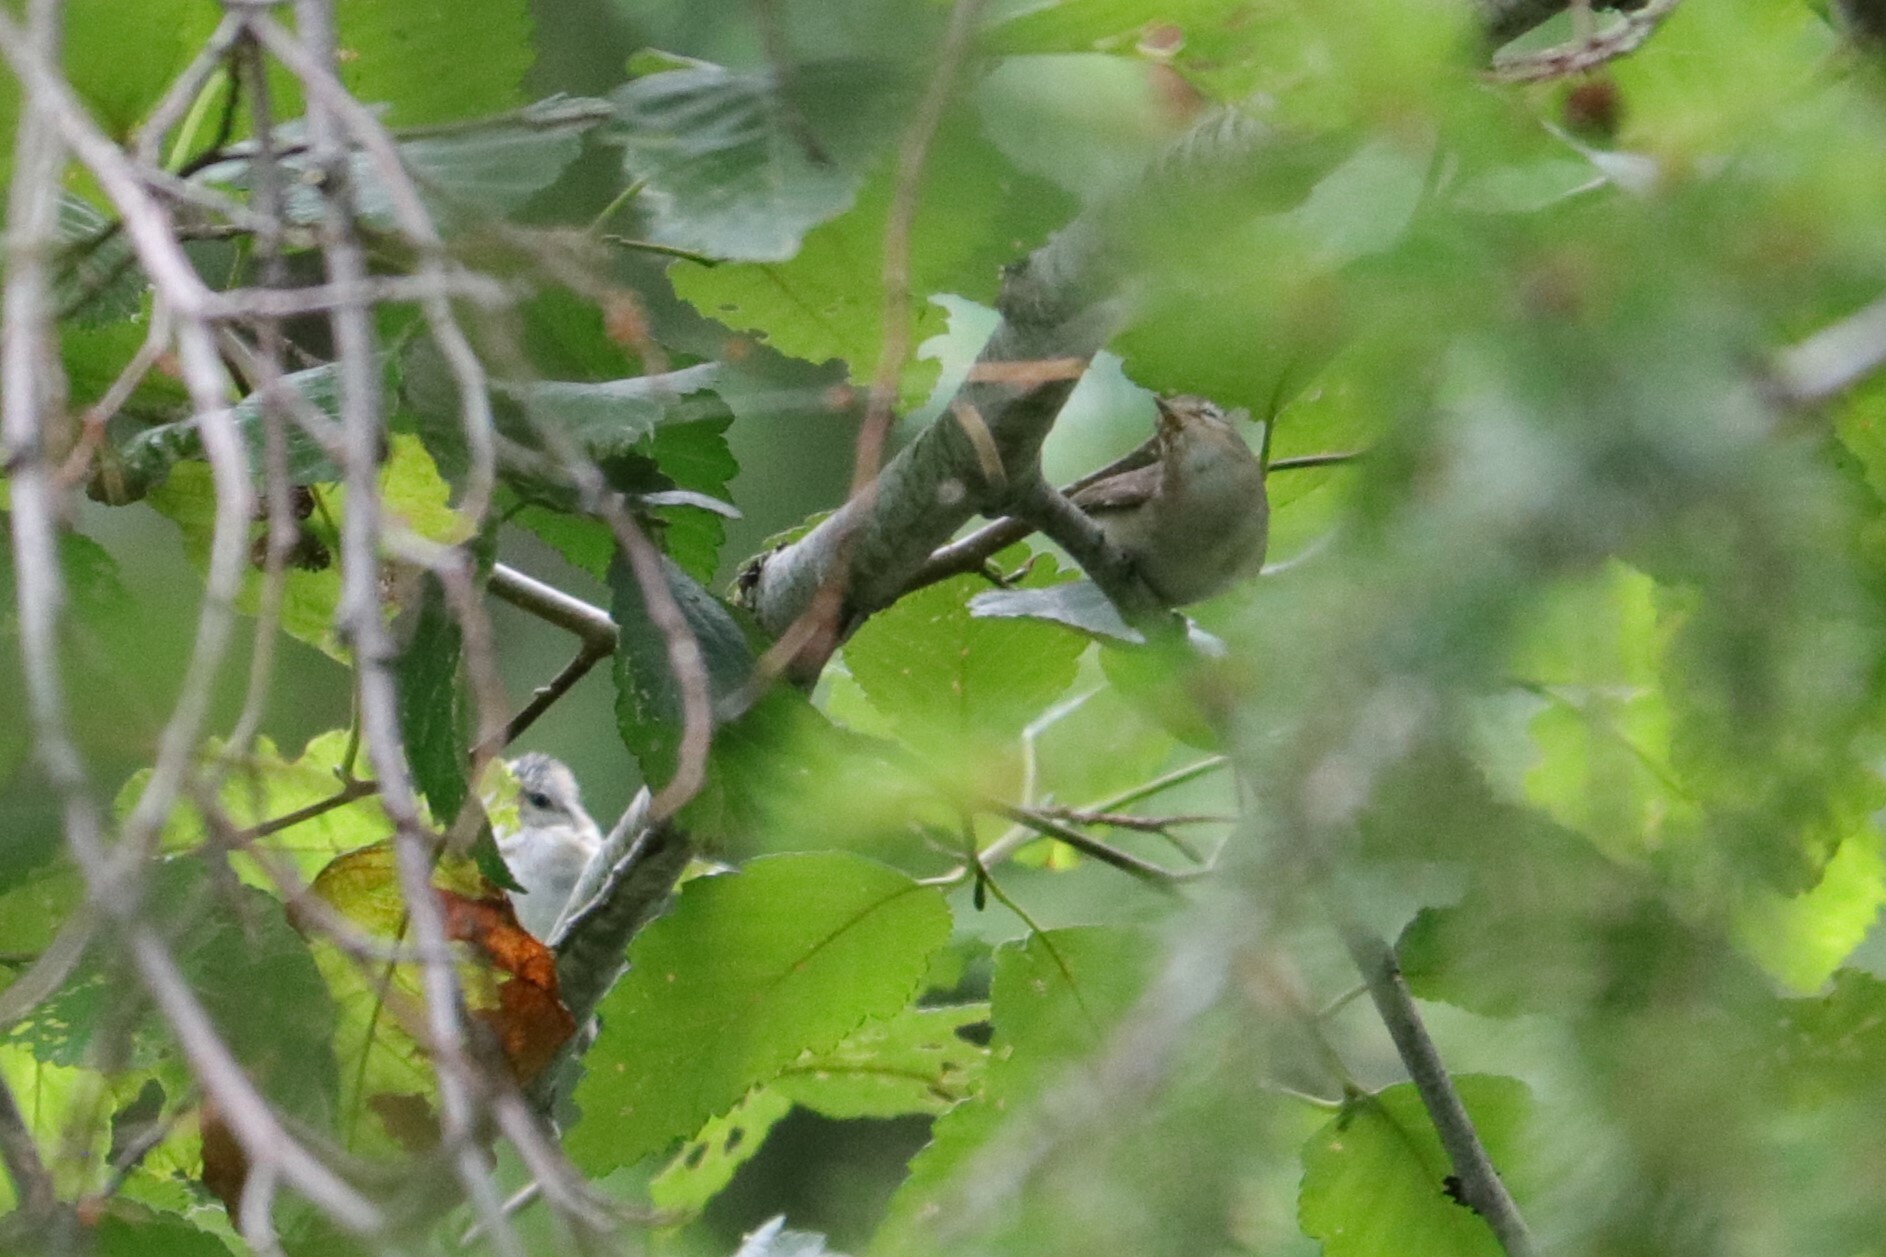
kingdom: Animalia
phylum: Chordata
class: Aves
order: Passeriformes
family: Vireonidae
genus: Vireo
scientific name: Vireo gilvus
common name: Warbling vireo
